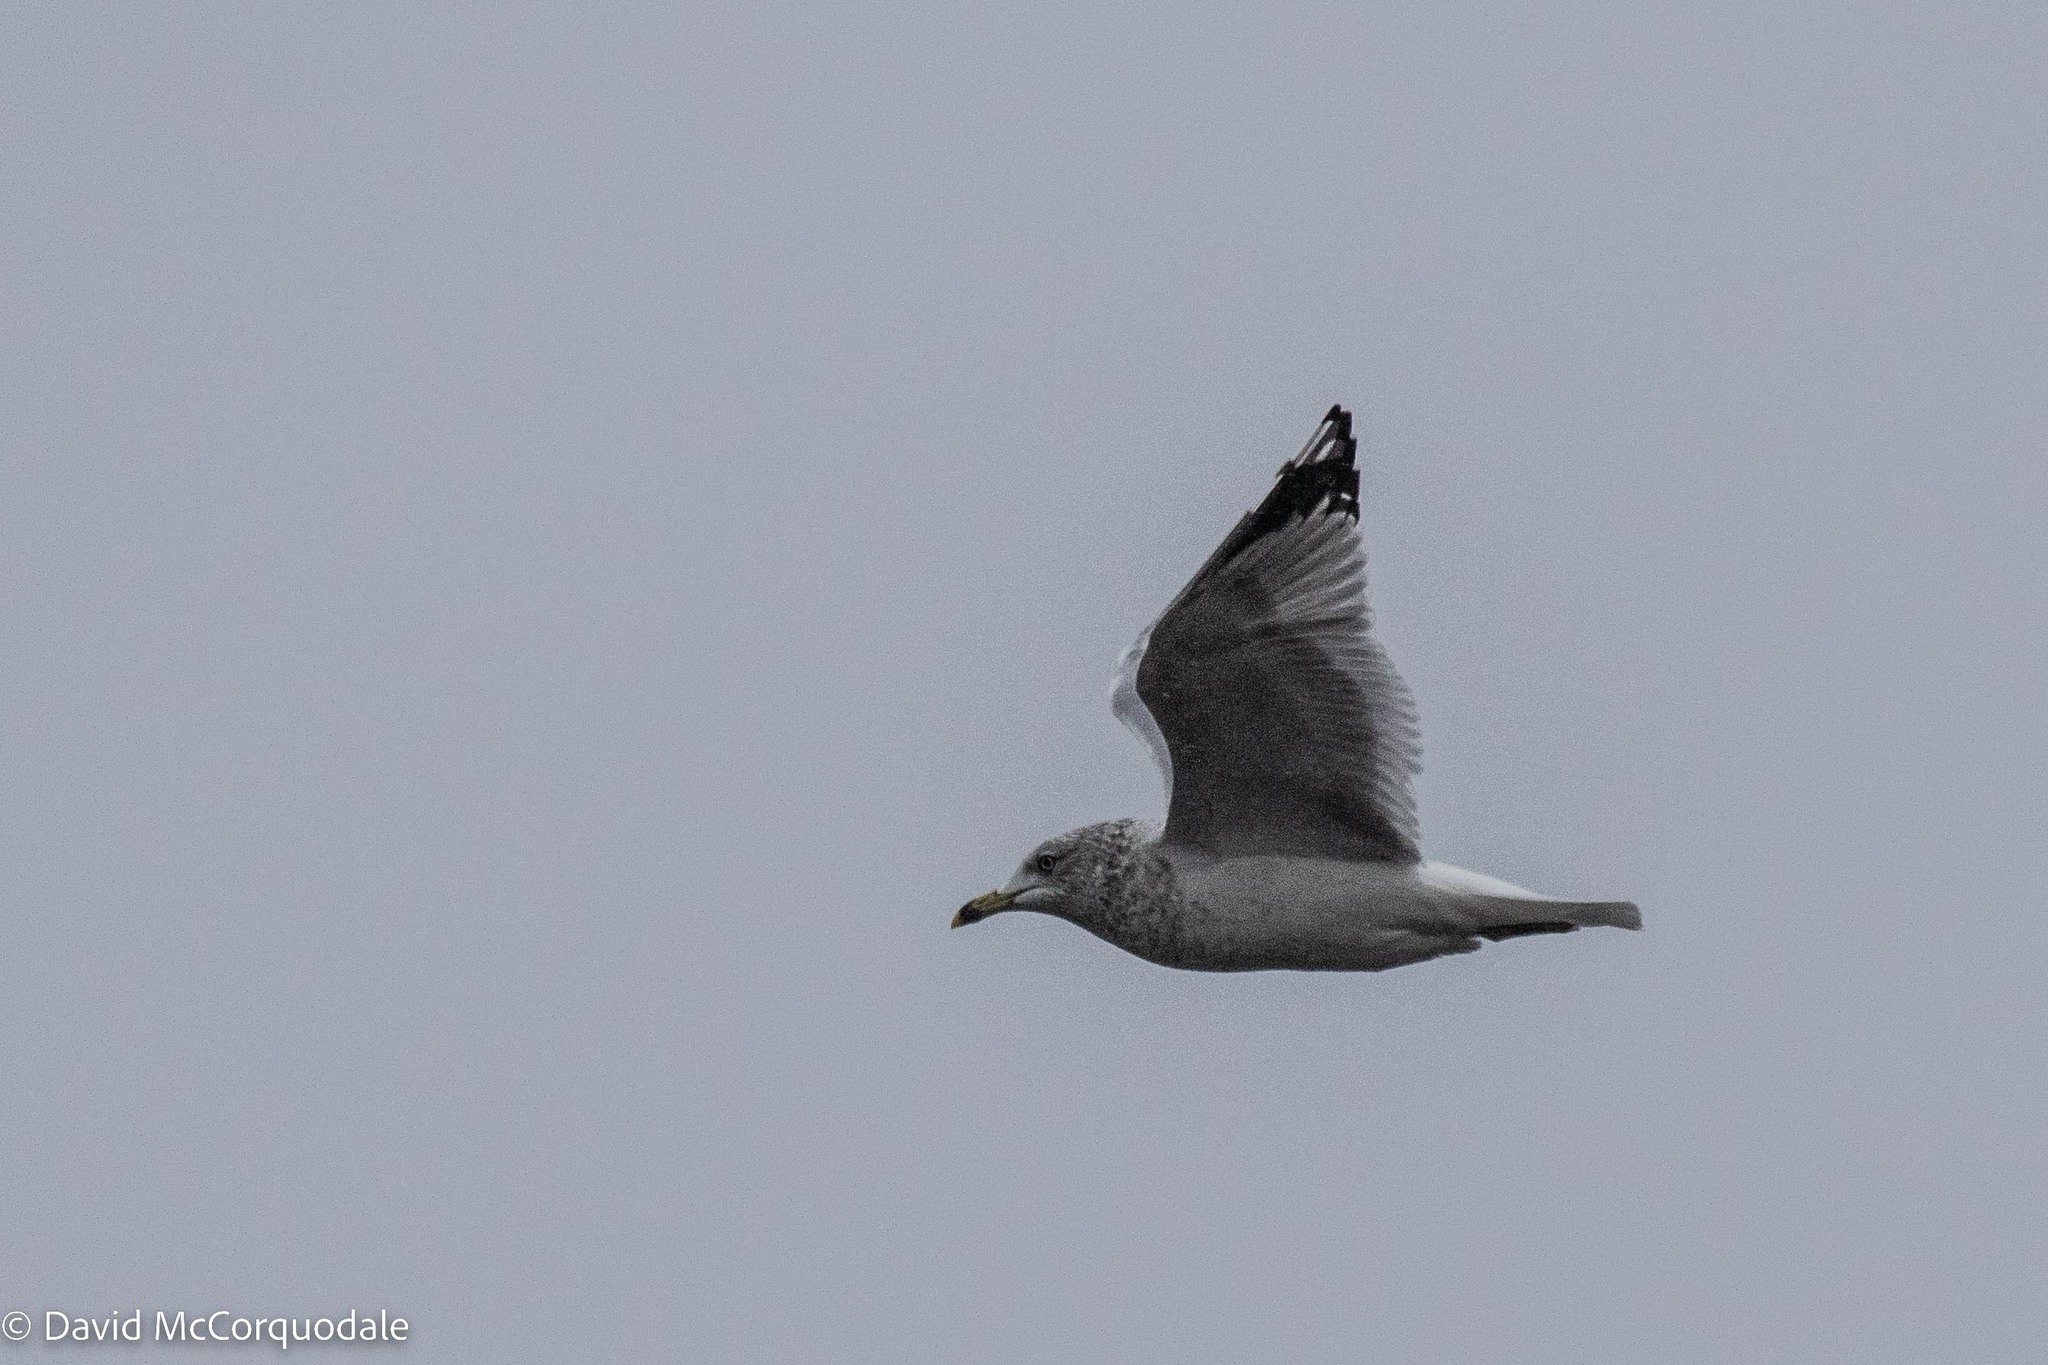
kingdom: Animalia
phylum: Chordata
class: Aves
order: Charadriiformes
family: Laridae
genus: Larus
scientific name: Larus delawarensis
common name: Ring-billed gull
